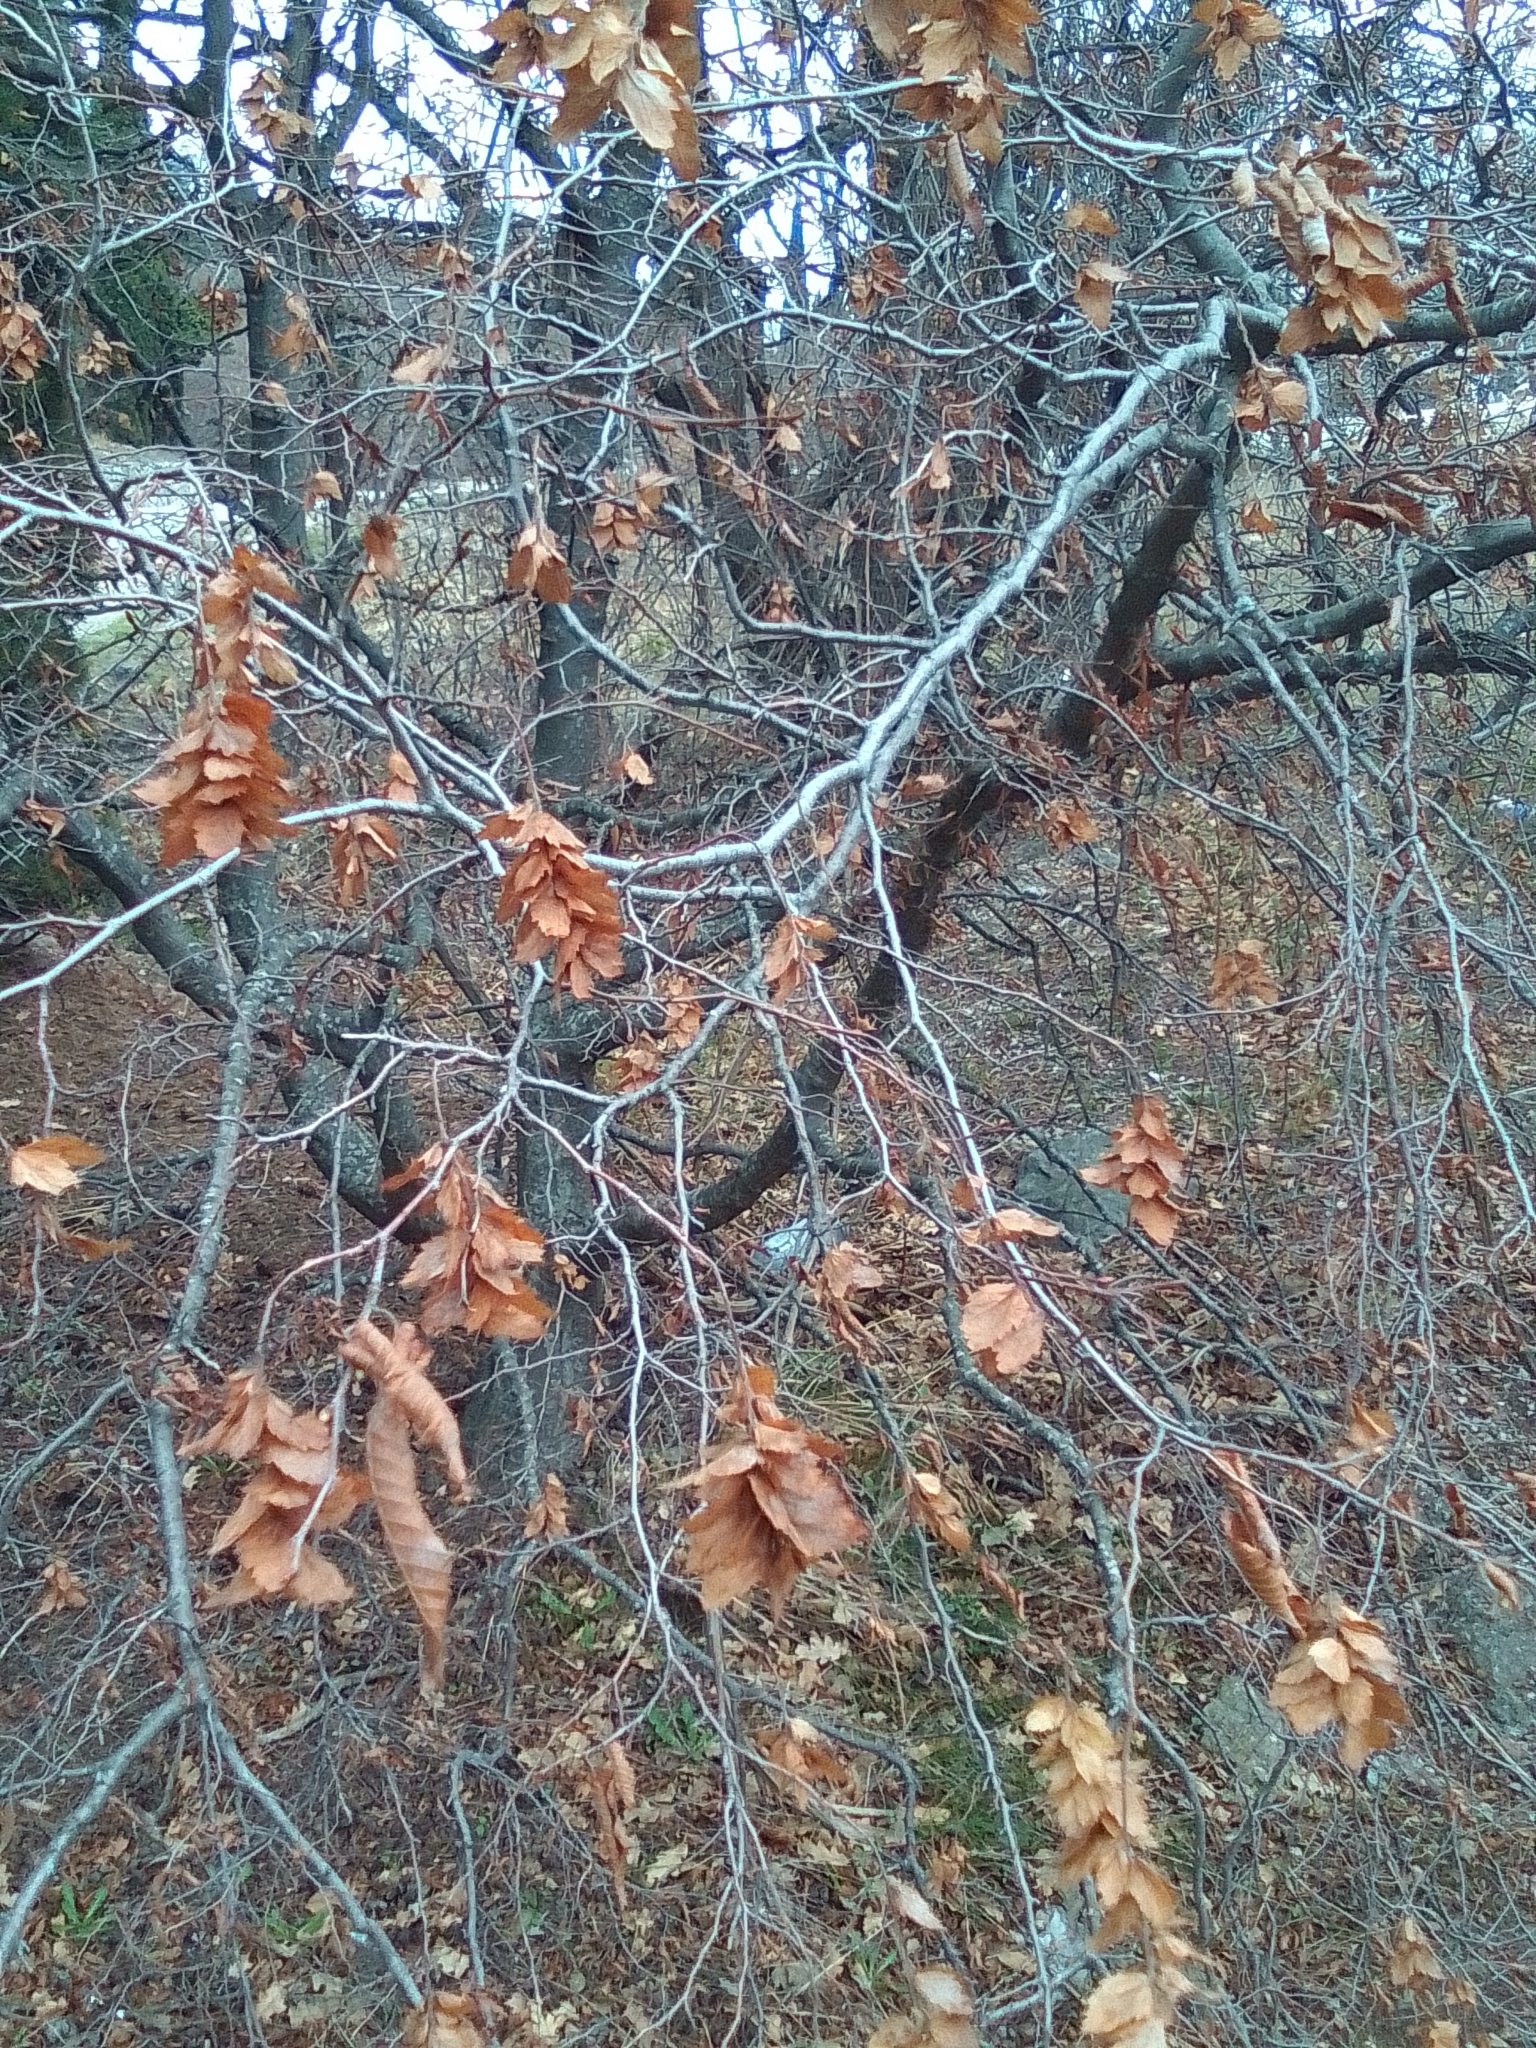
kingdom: Plantae
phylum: Tracheophyta
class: Magnoliopsida
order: Fagales
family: Betulaceae
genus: Carpinus
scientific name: Carpinus orientalis
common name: Eastern hornbeam
